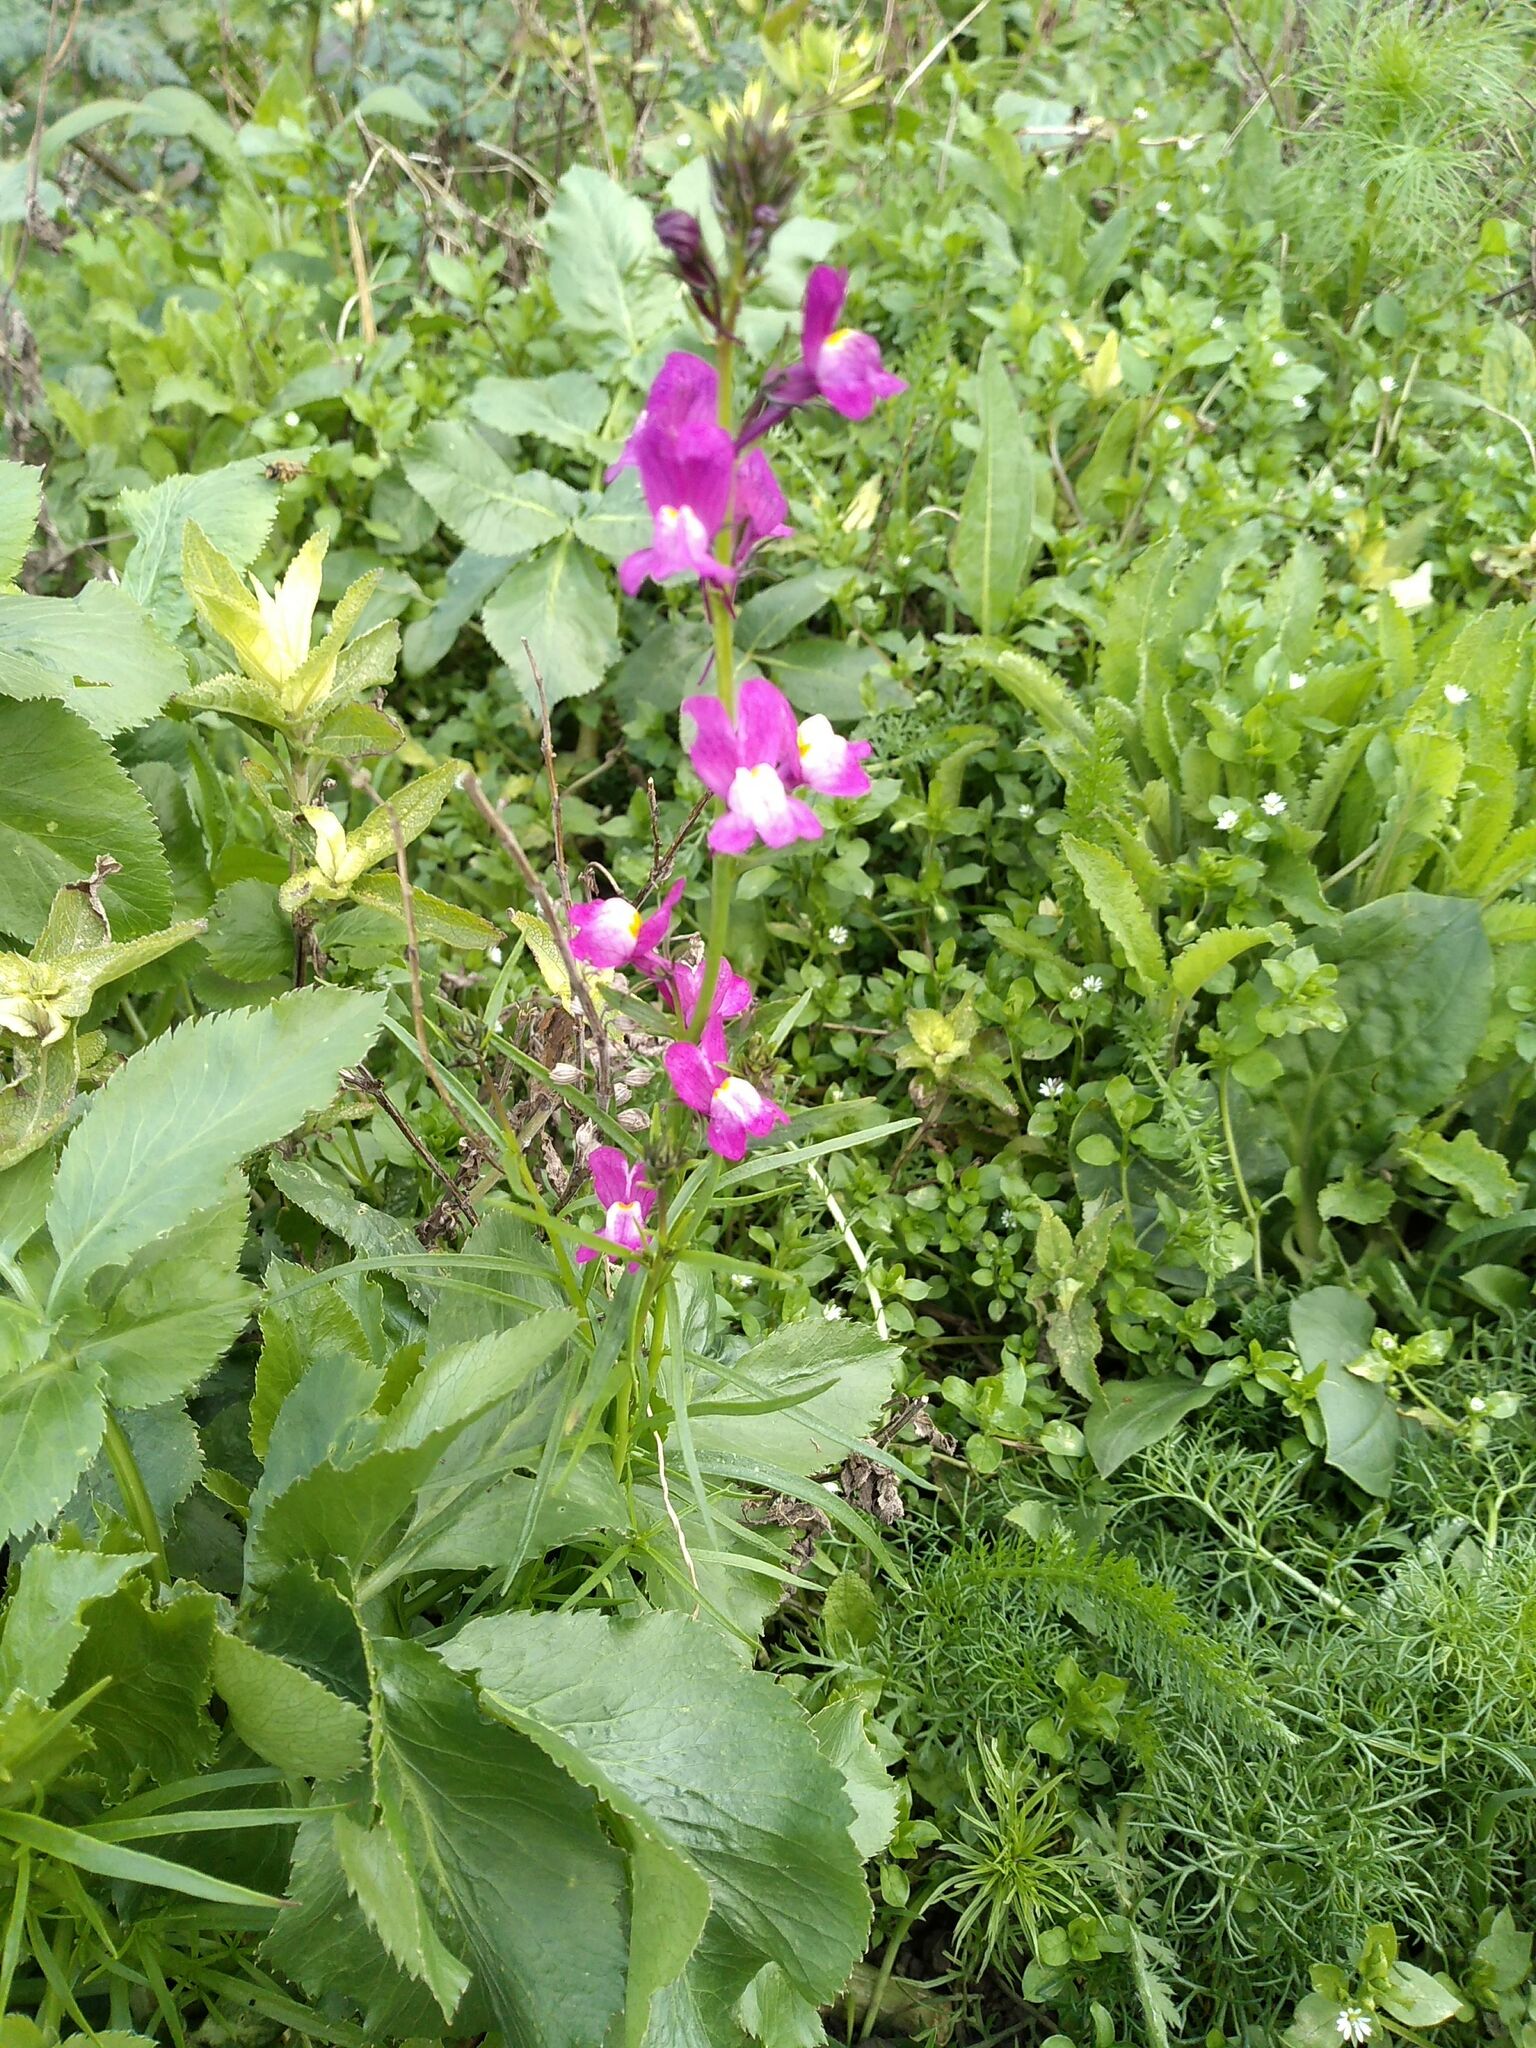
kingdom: Plantae
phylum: Tracheophyta
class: Magnoliopsida
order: Lamiales
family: Plantaginaceae
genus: Linaria
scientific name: Linaria maroccana
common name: Moroccan toadflax
